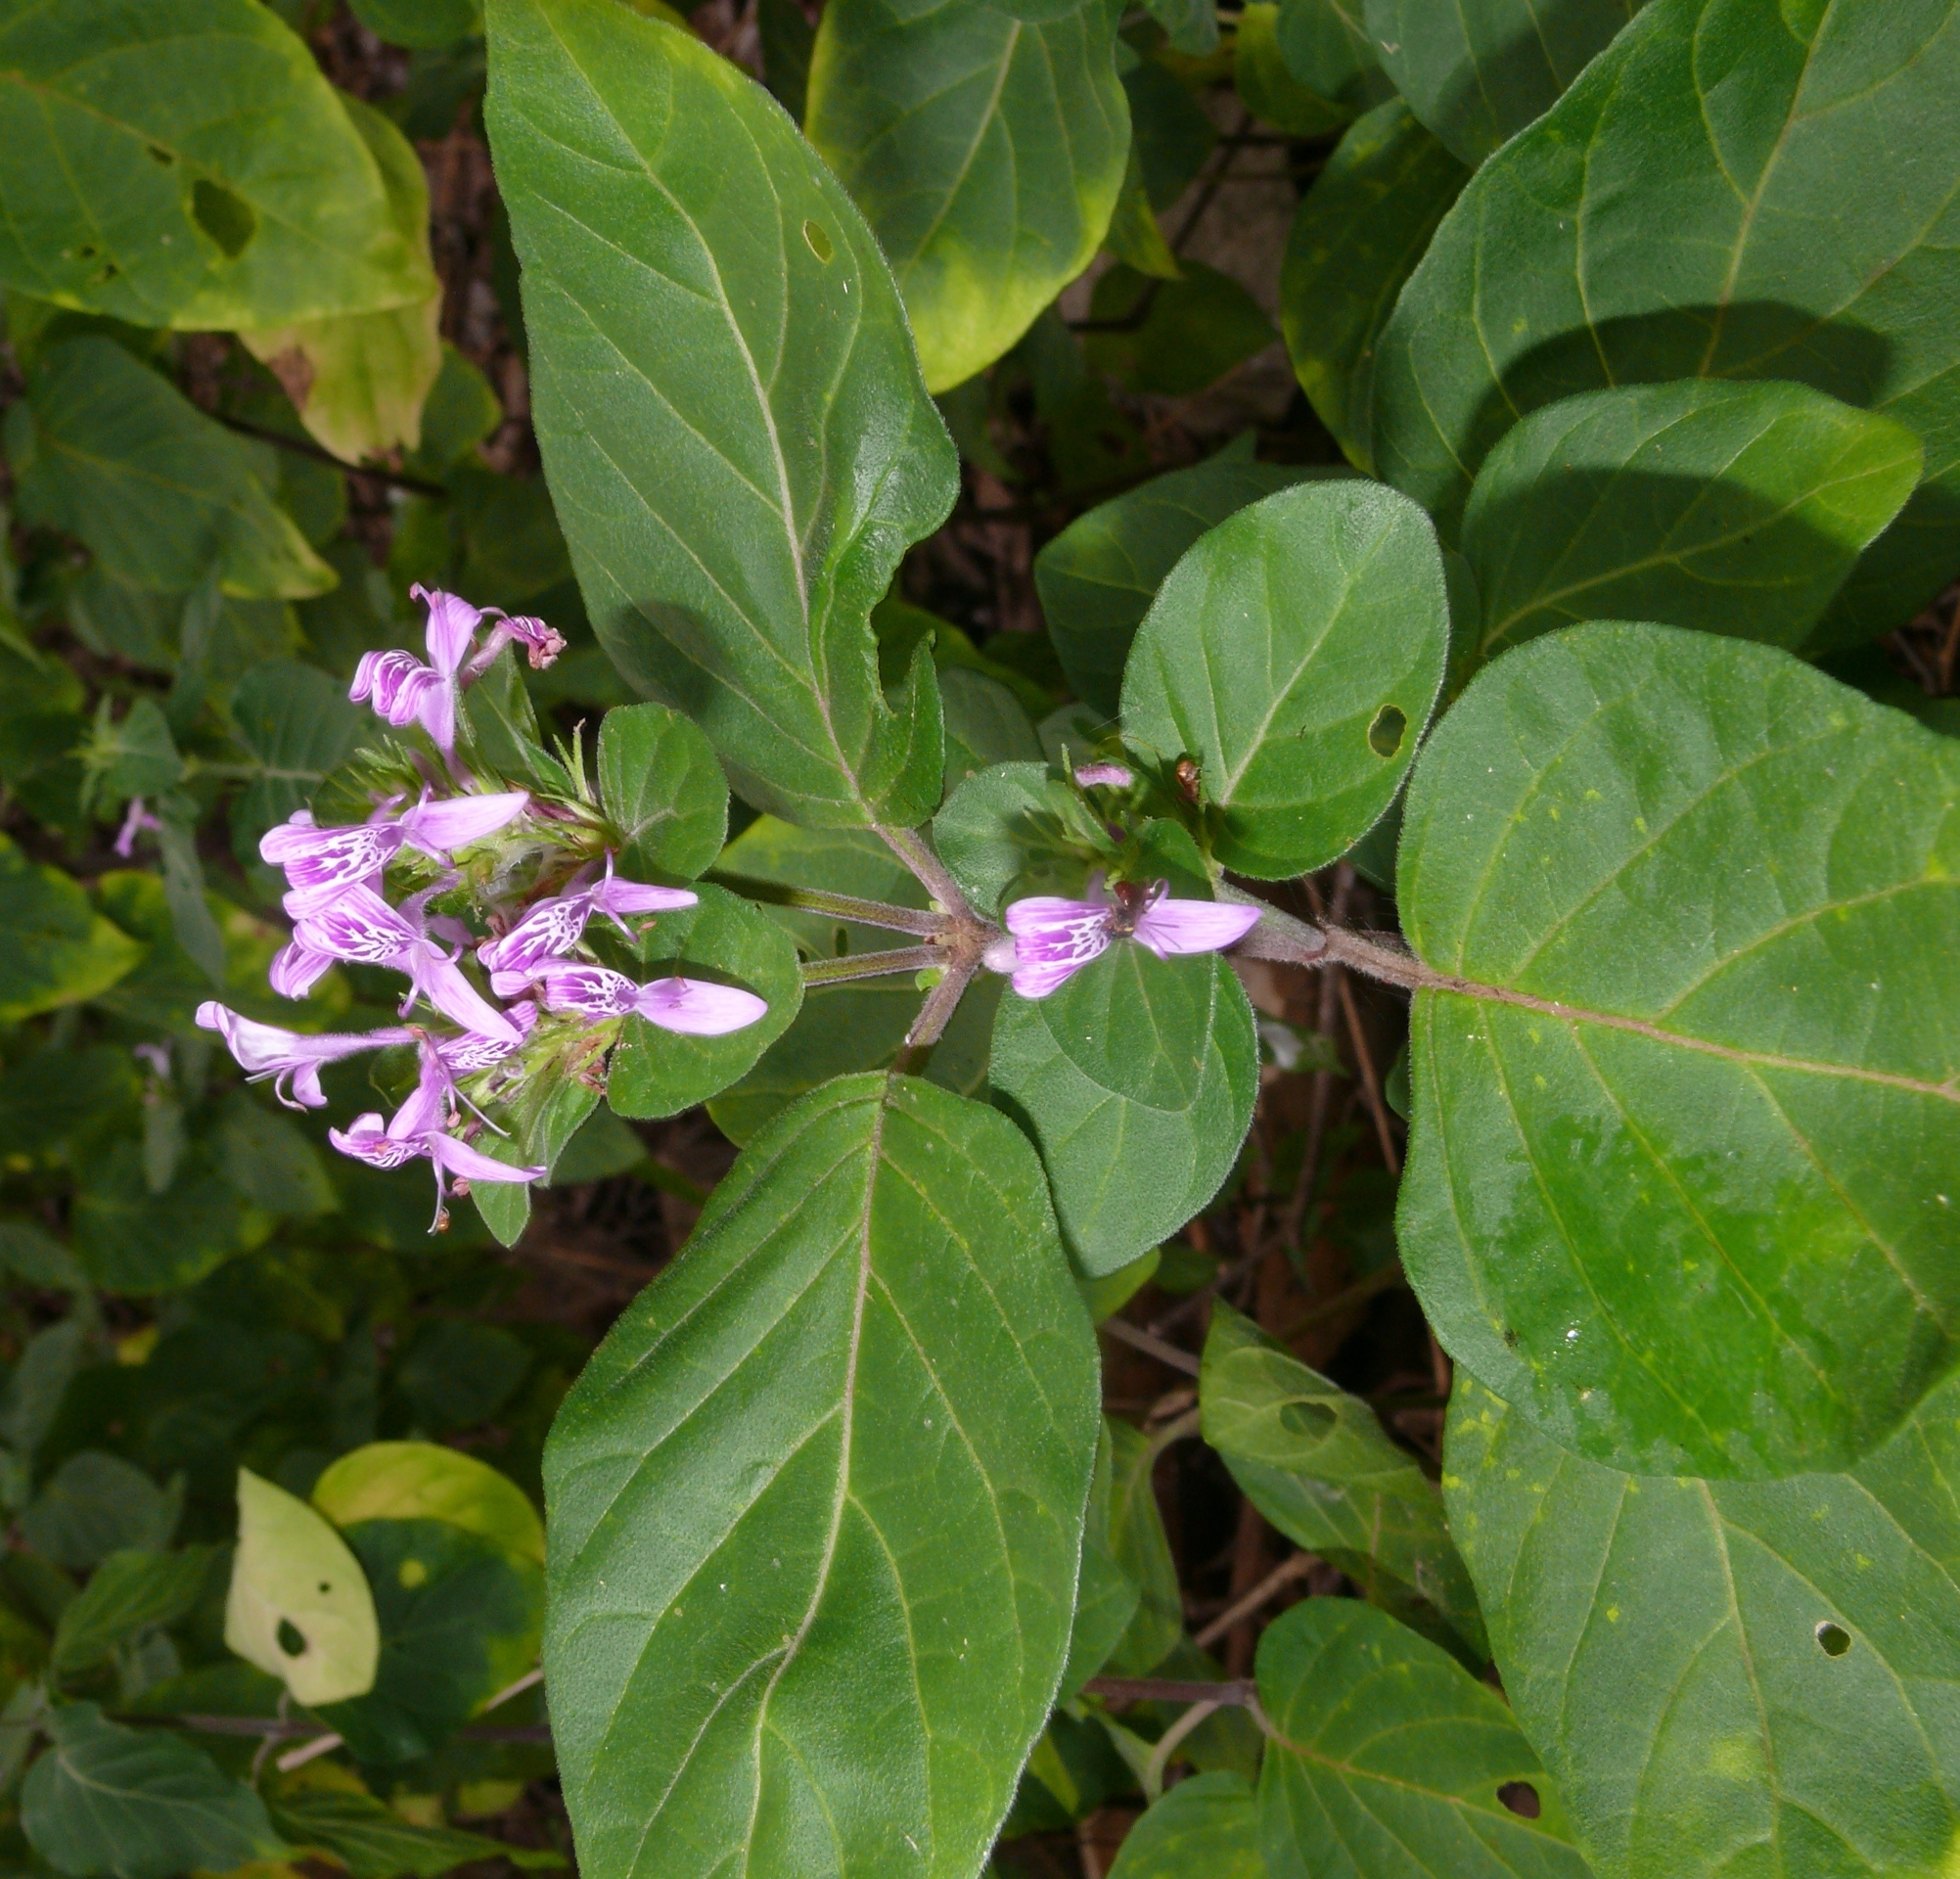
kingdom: Plantae
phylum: Tracheophyta
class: Magnoliopsida
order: Lamiales
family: Acanthaceae
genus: Hypoestes
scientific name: Hypoestes aristata
